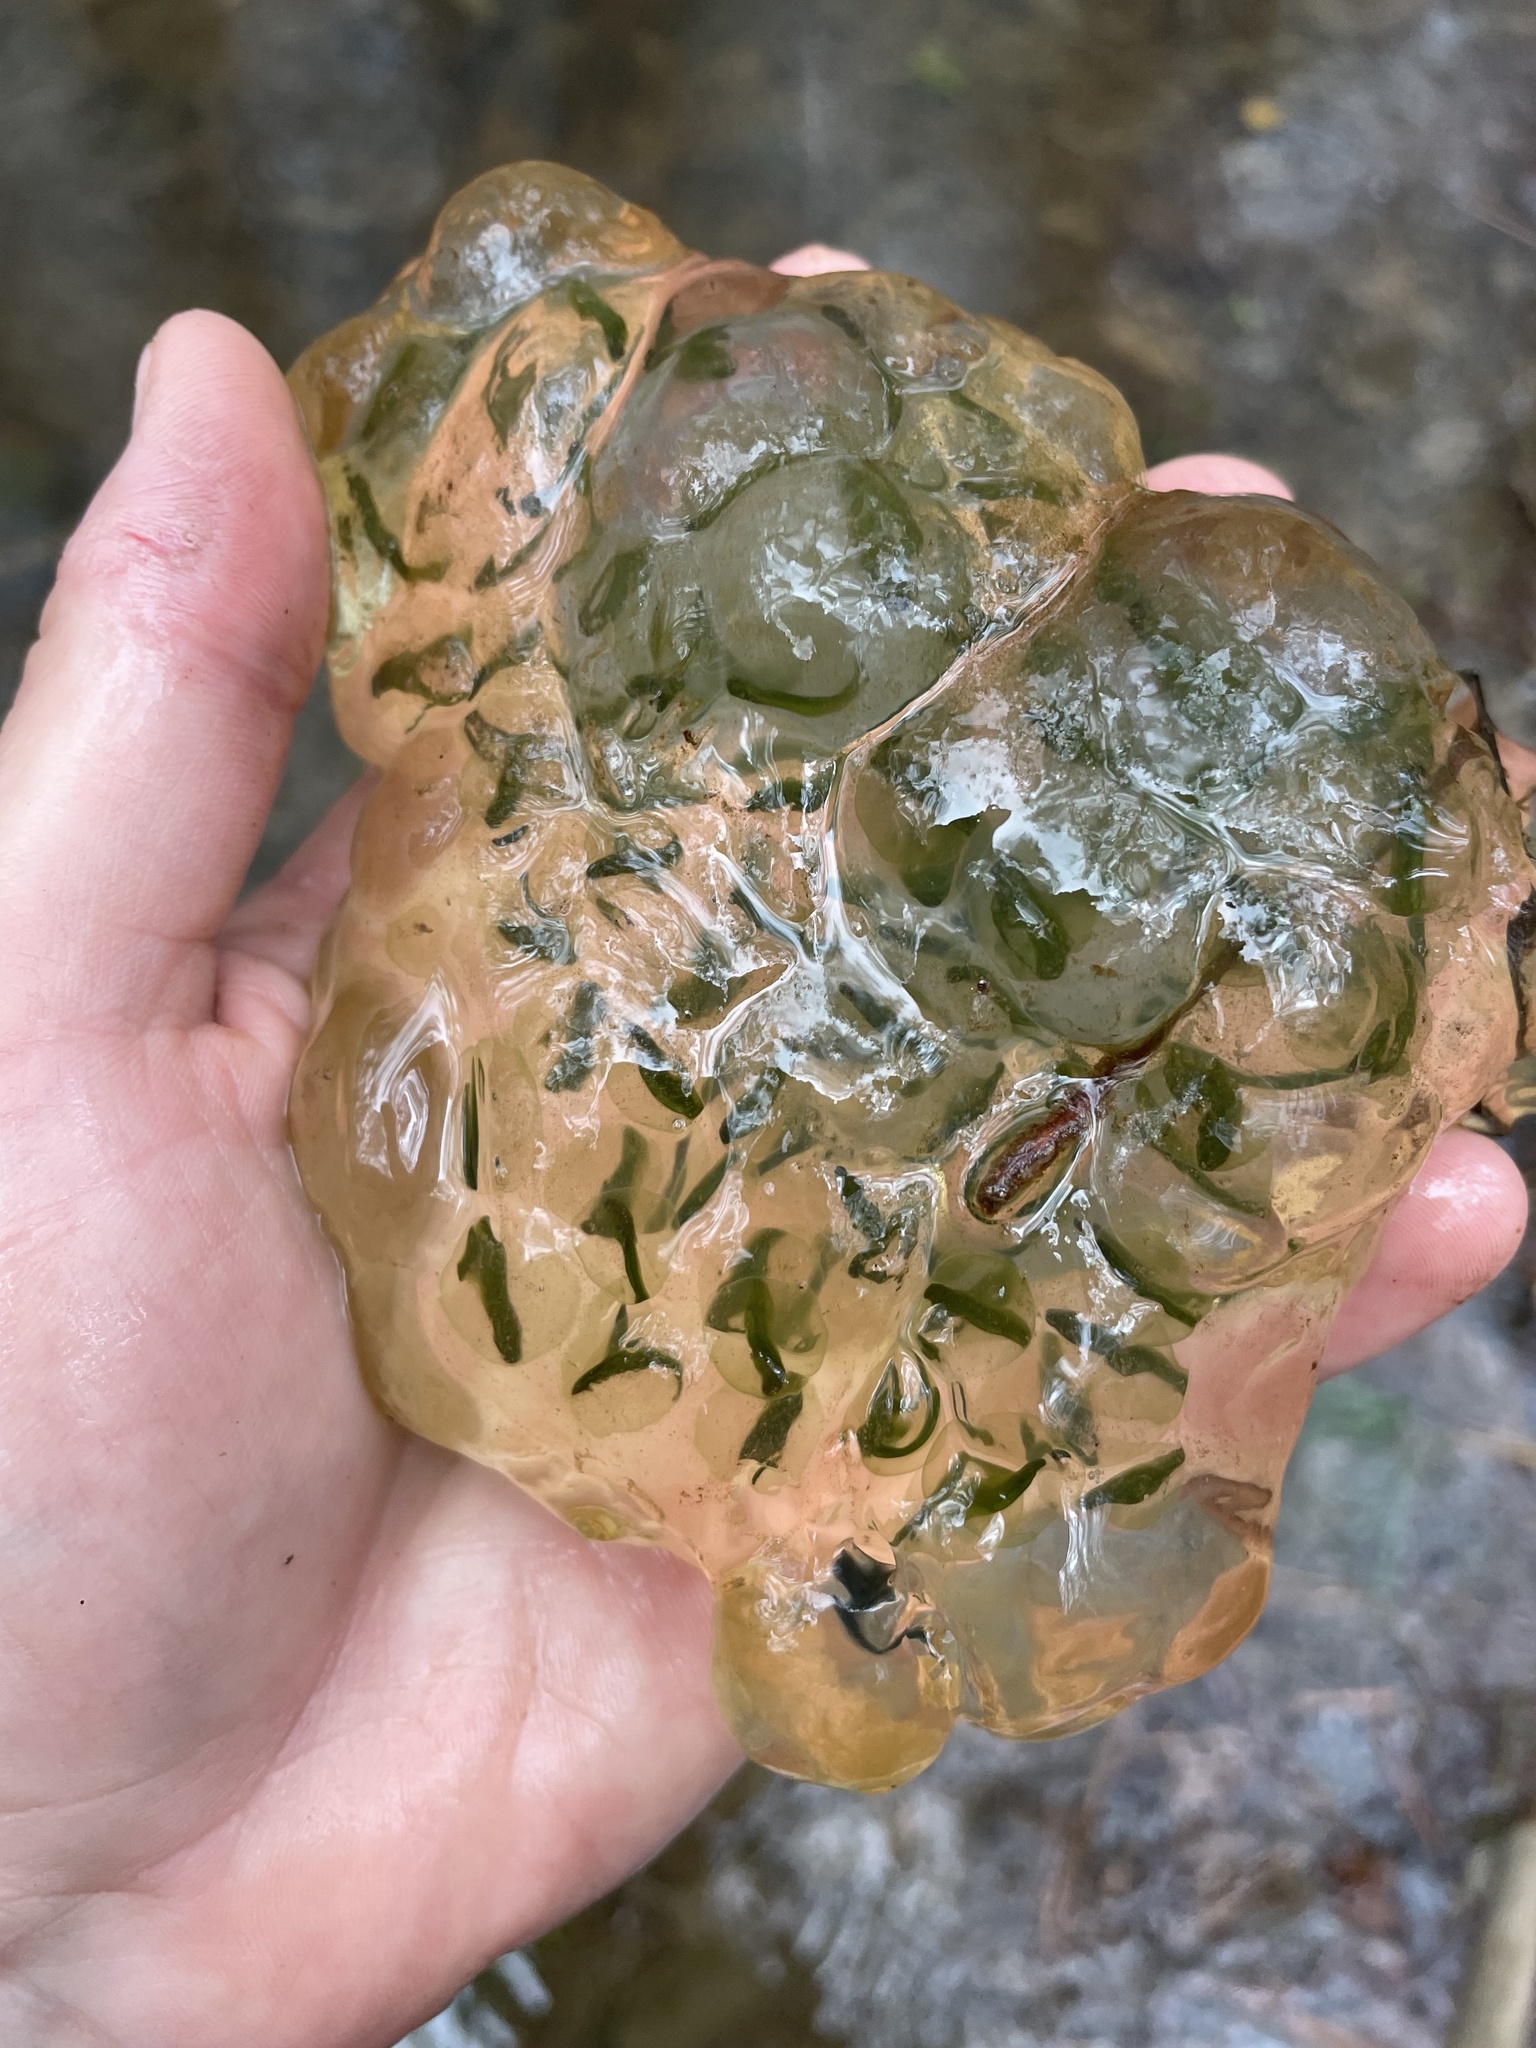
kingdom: Animalia
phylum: Chordata
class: Amphibia
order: Caudata
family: Ambystomatidae
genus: Ambystoma
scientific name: Ambystoma maculatum
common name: Spotted salamander
